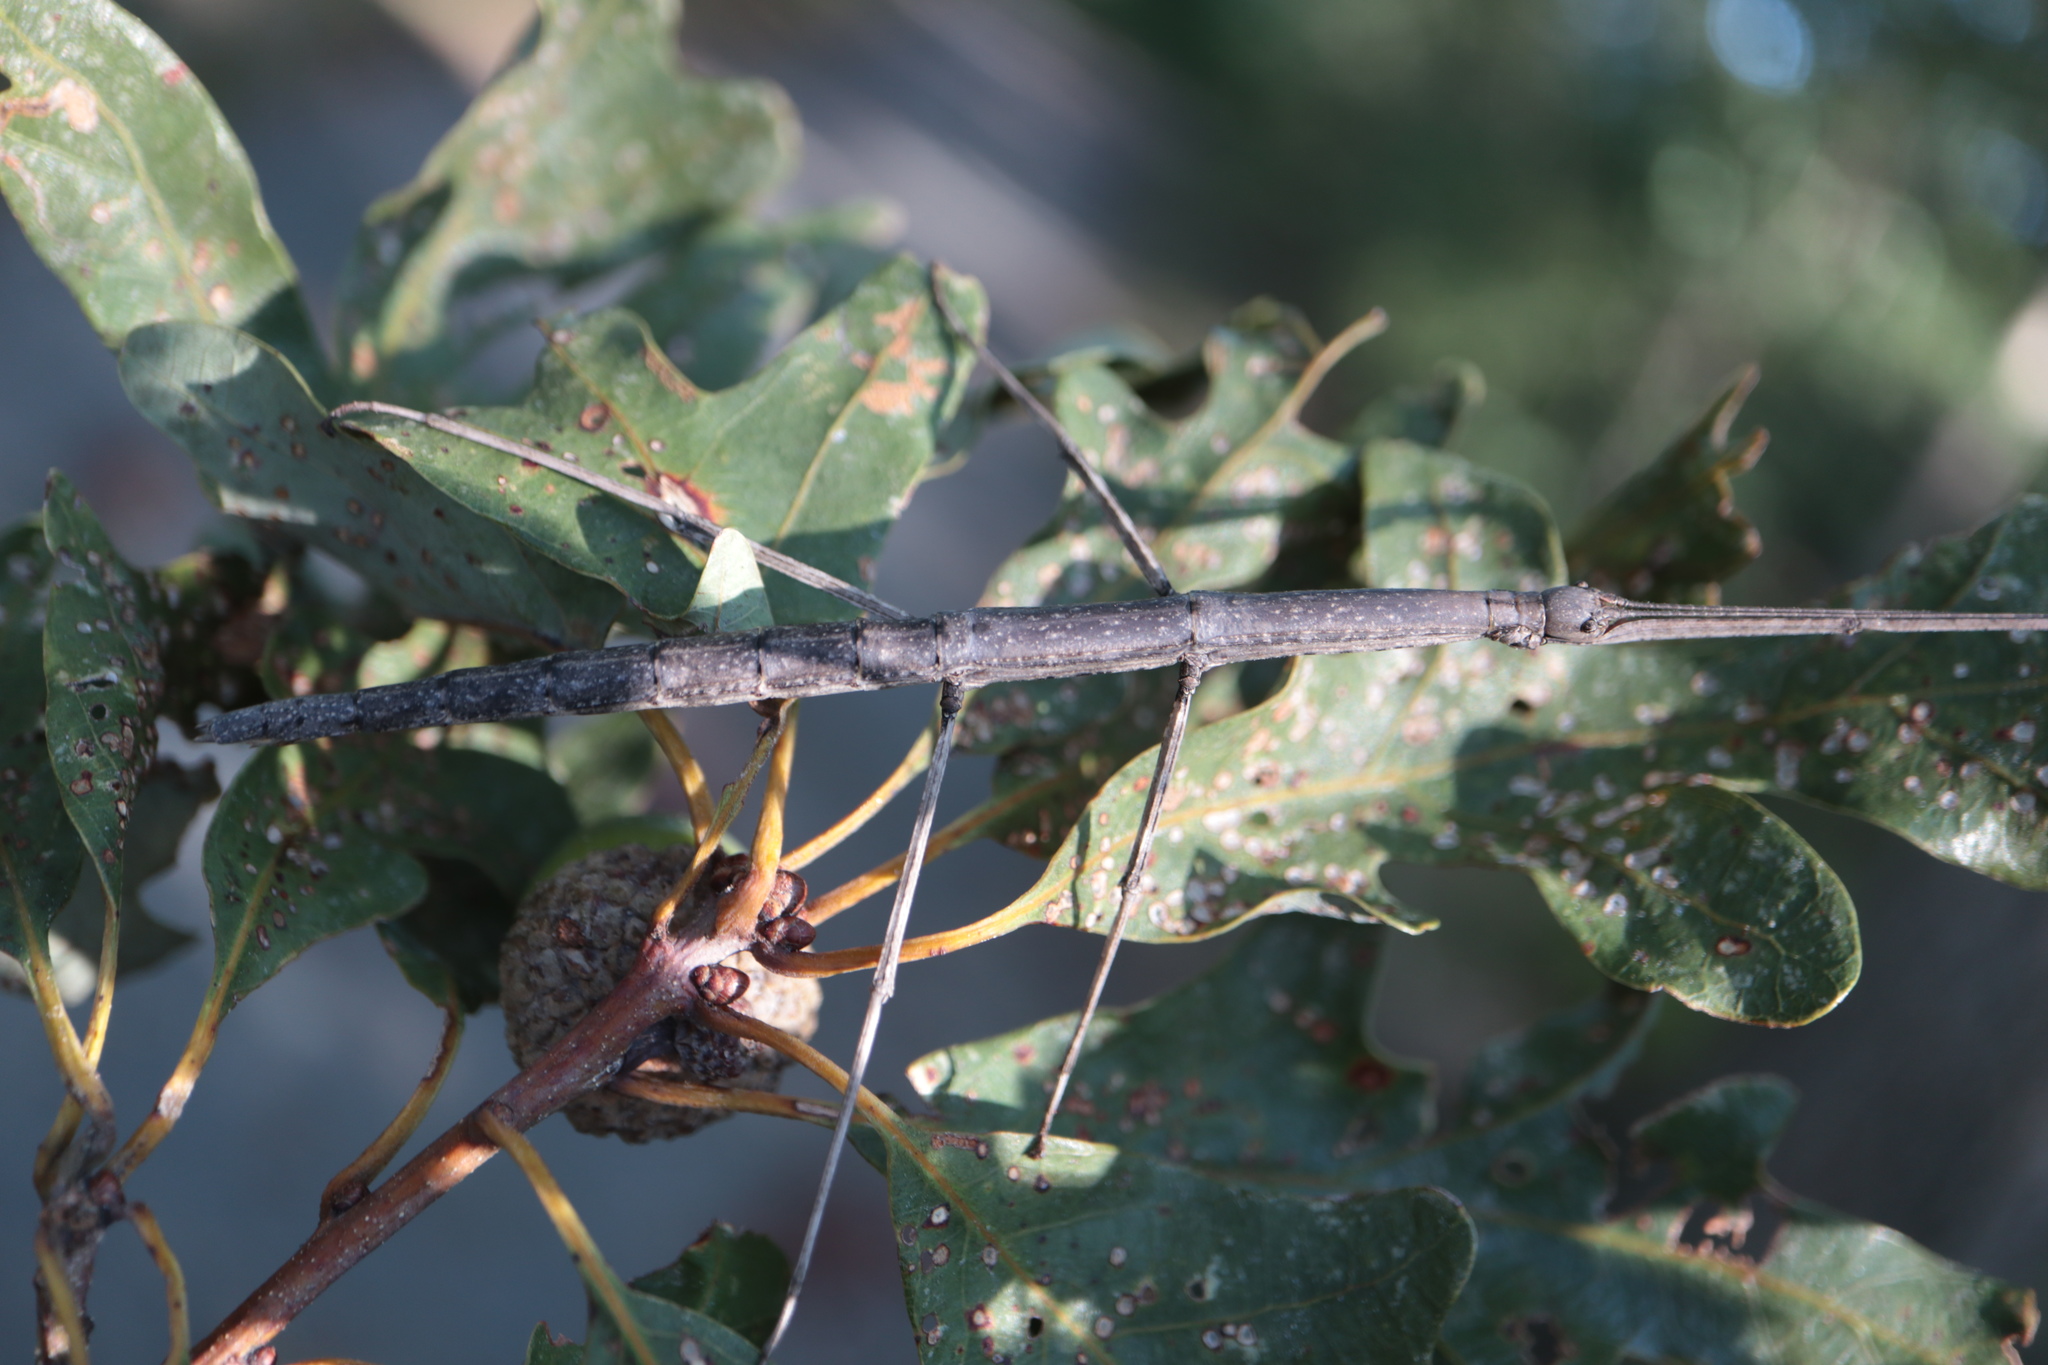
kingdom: Animalia
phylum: Arthropoda
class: Insecta
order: Phasmida
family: Diapheromeridae
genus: Diapheromera
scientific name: Diapheromera femorata
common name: Common american walkingstick
